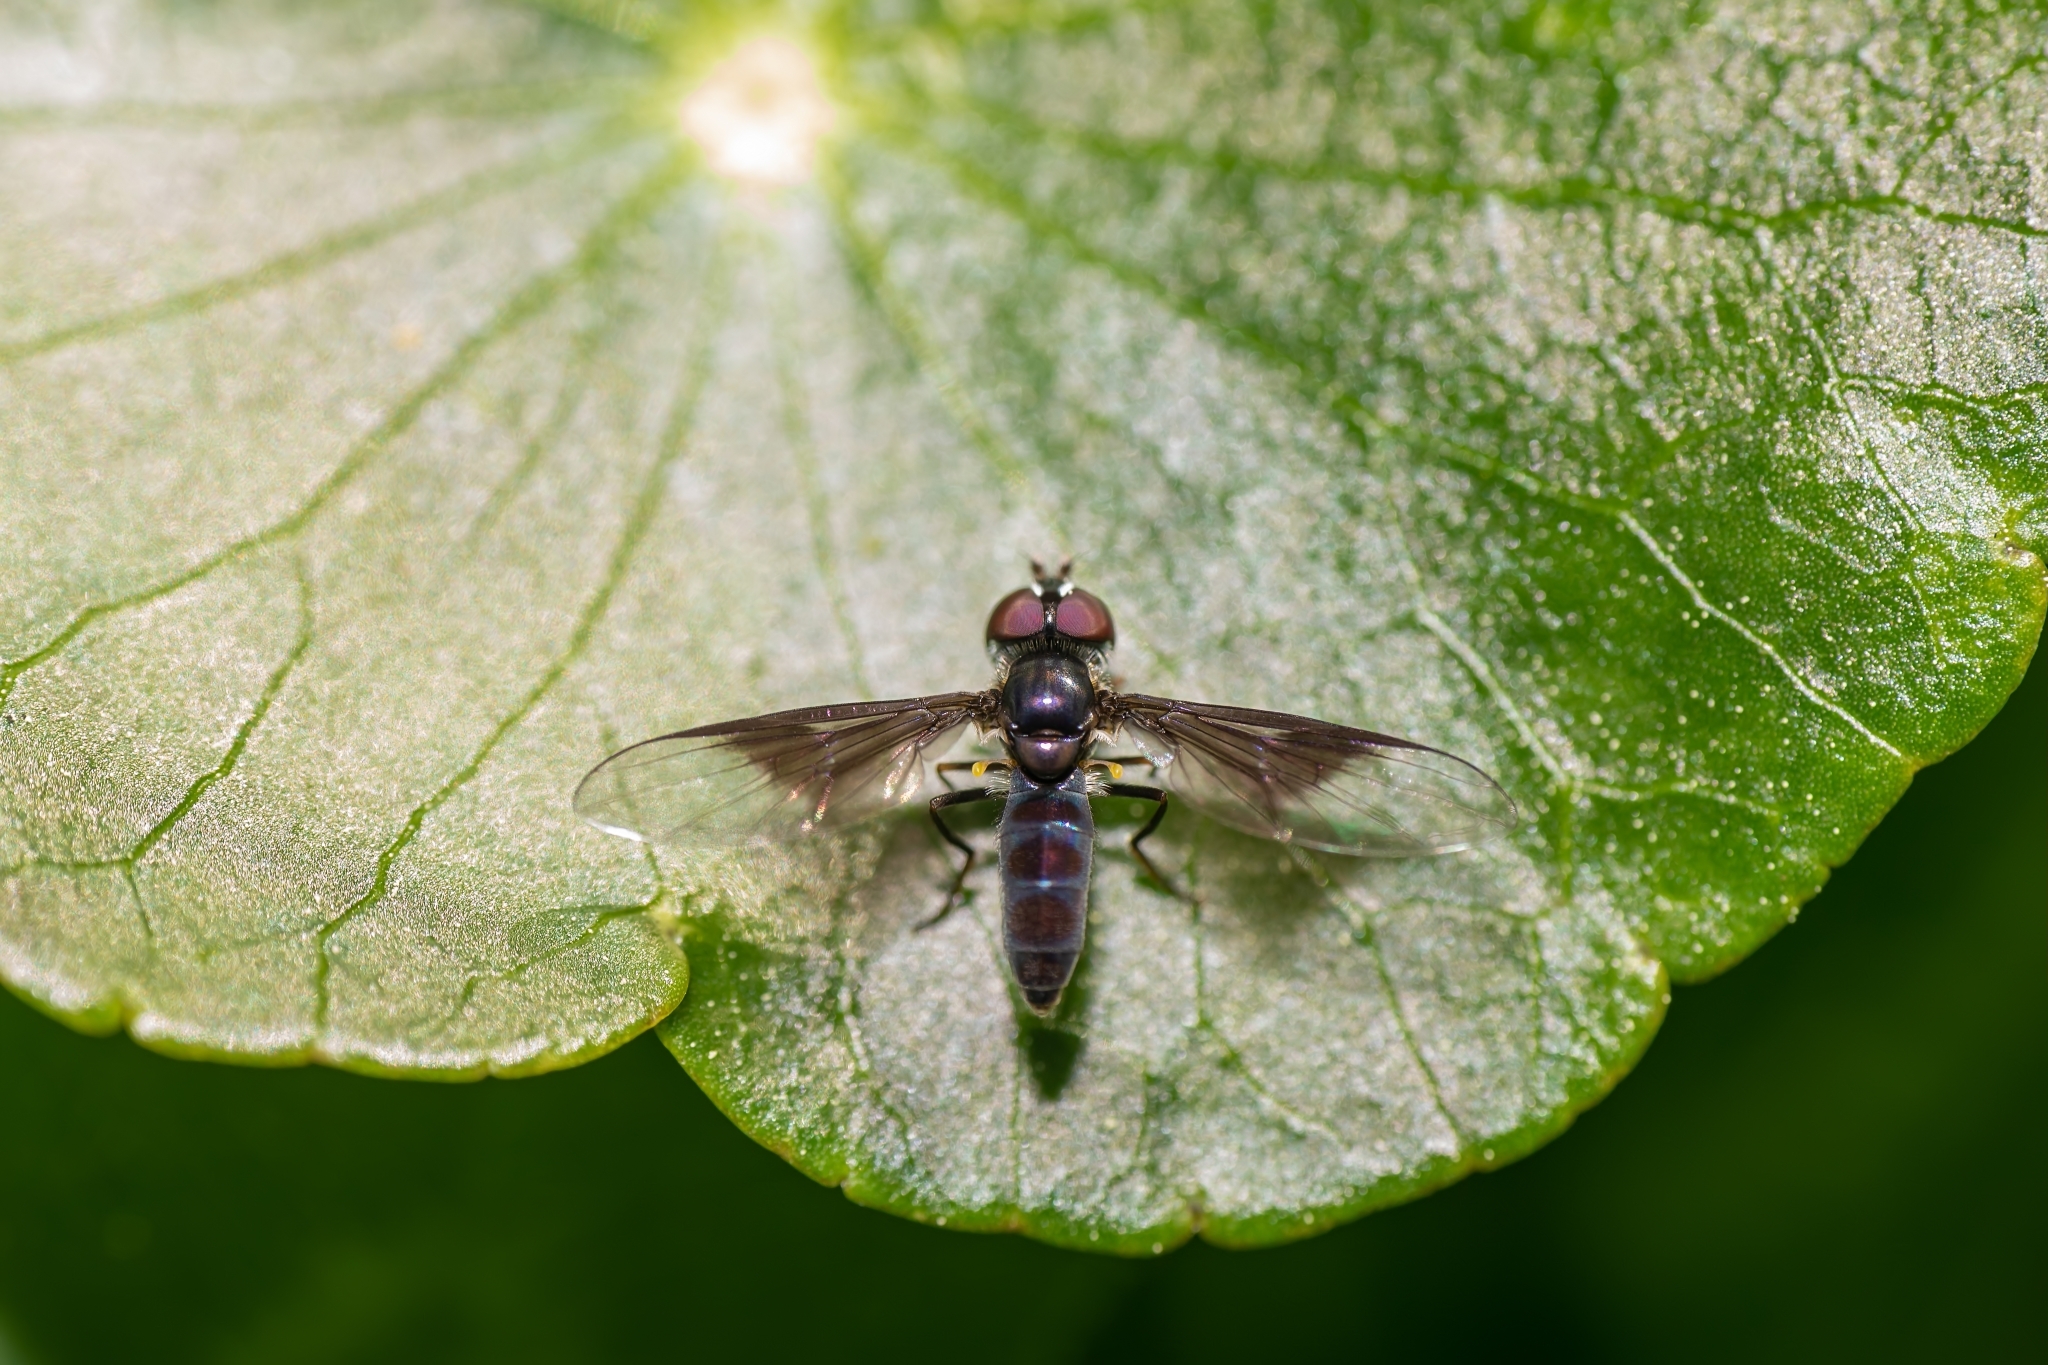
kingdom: Animalia
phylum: Arthropoda
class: Insecta
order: Diptera
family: Syrphidae
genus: Ocyptamus
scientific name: Ocyptamus dimidiatus
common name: Syrphid fly
